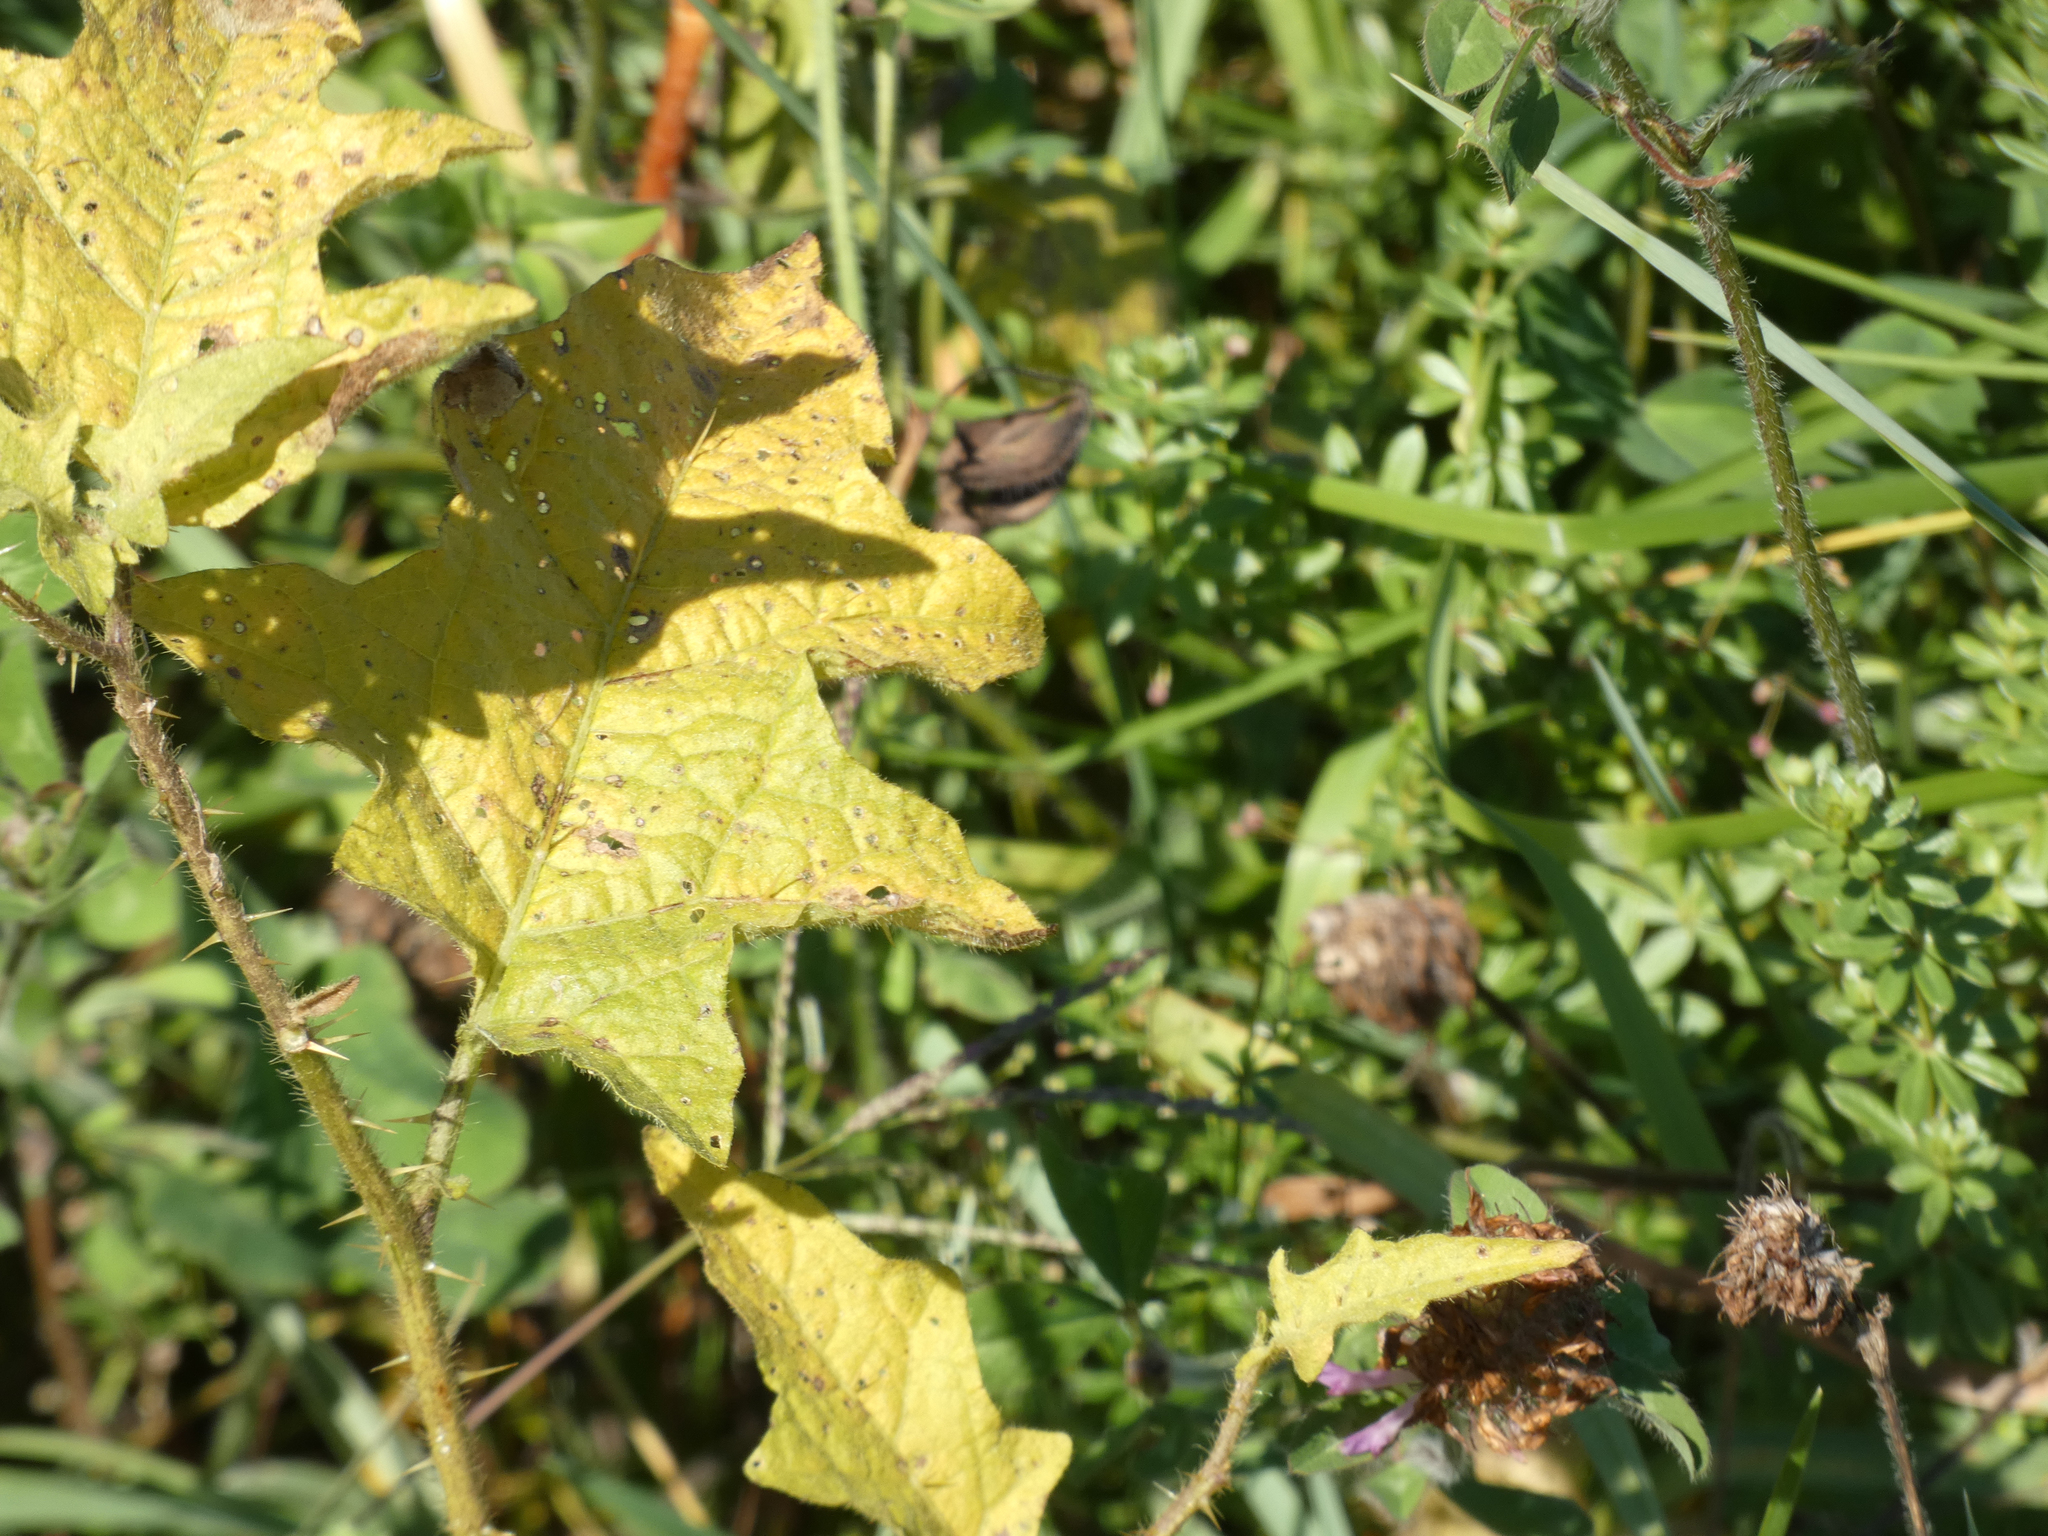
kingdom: Plantae
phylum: Tracheophyta
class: Magnoliopsida
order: Solanales
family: Solanaceae
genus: Solanum
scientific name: Solanum carolinense
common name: Horse-nettle
